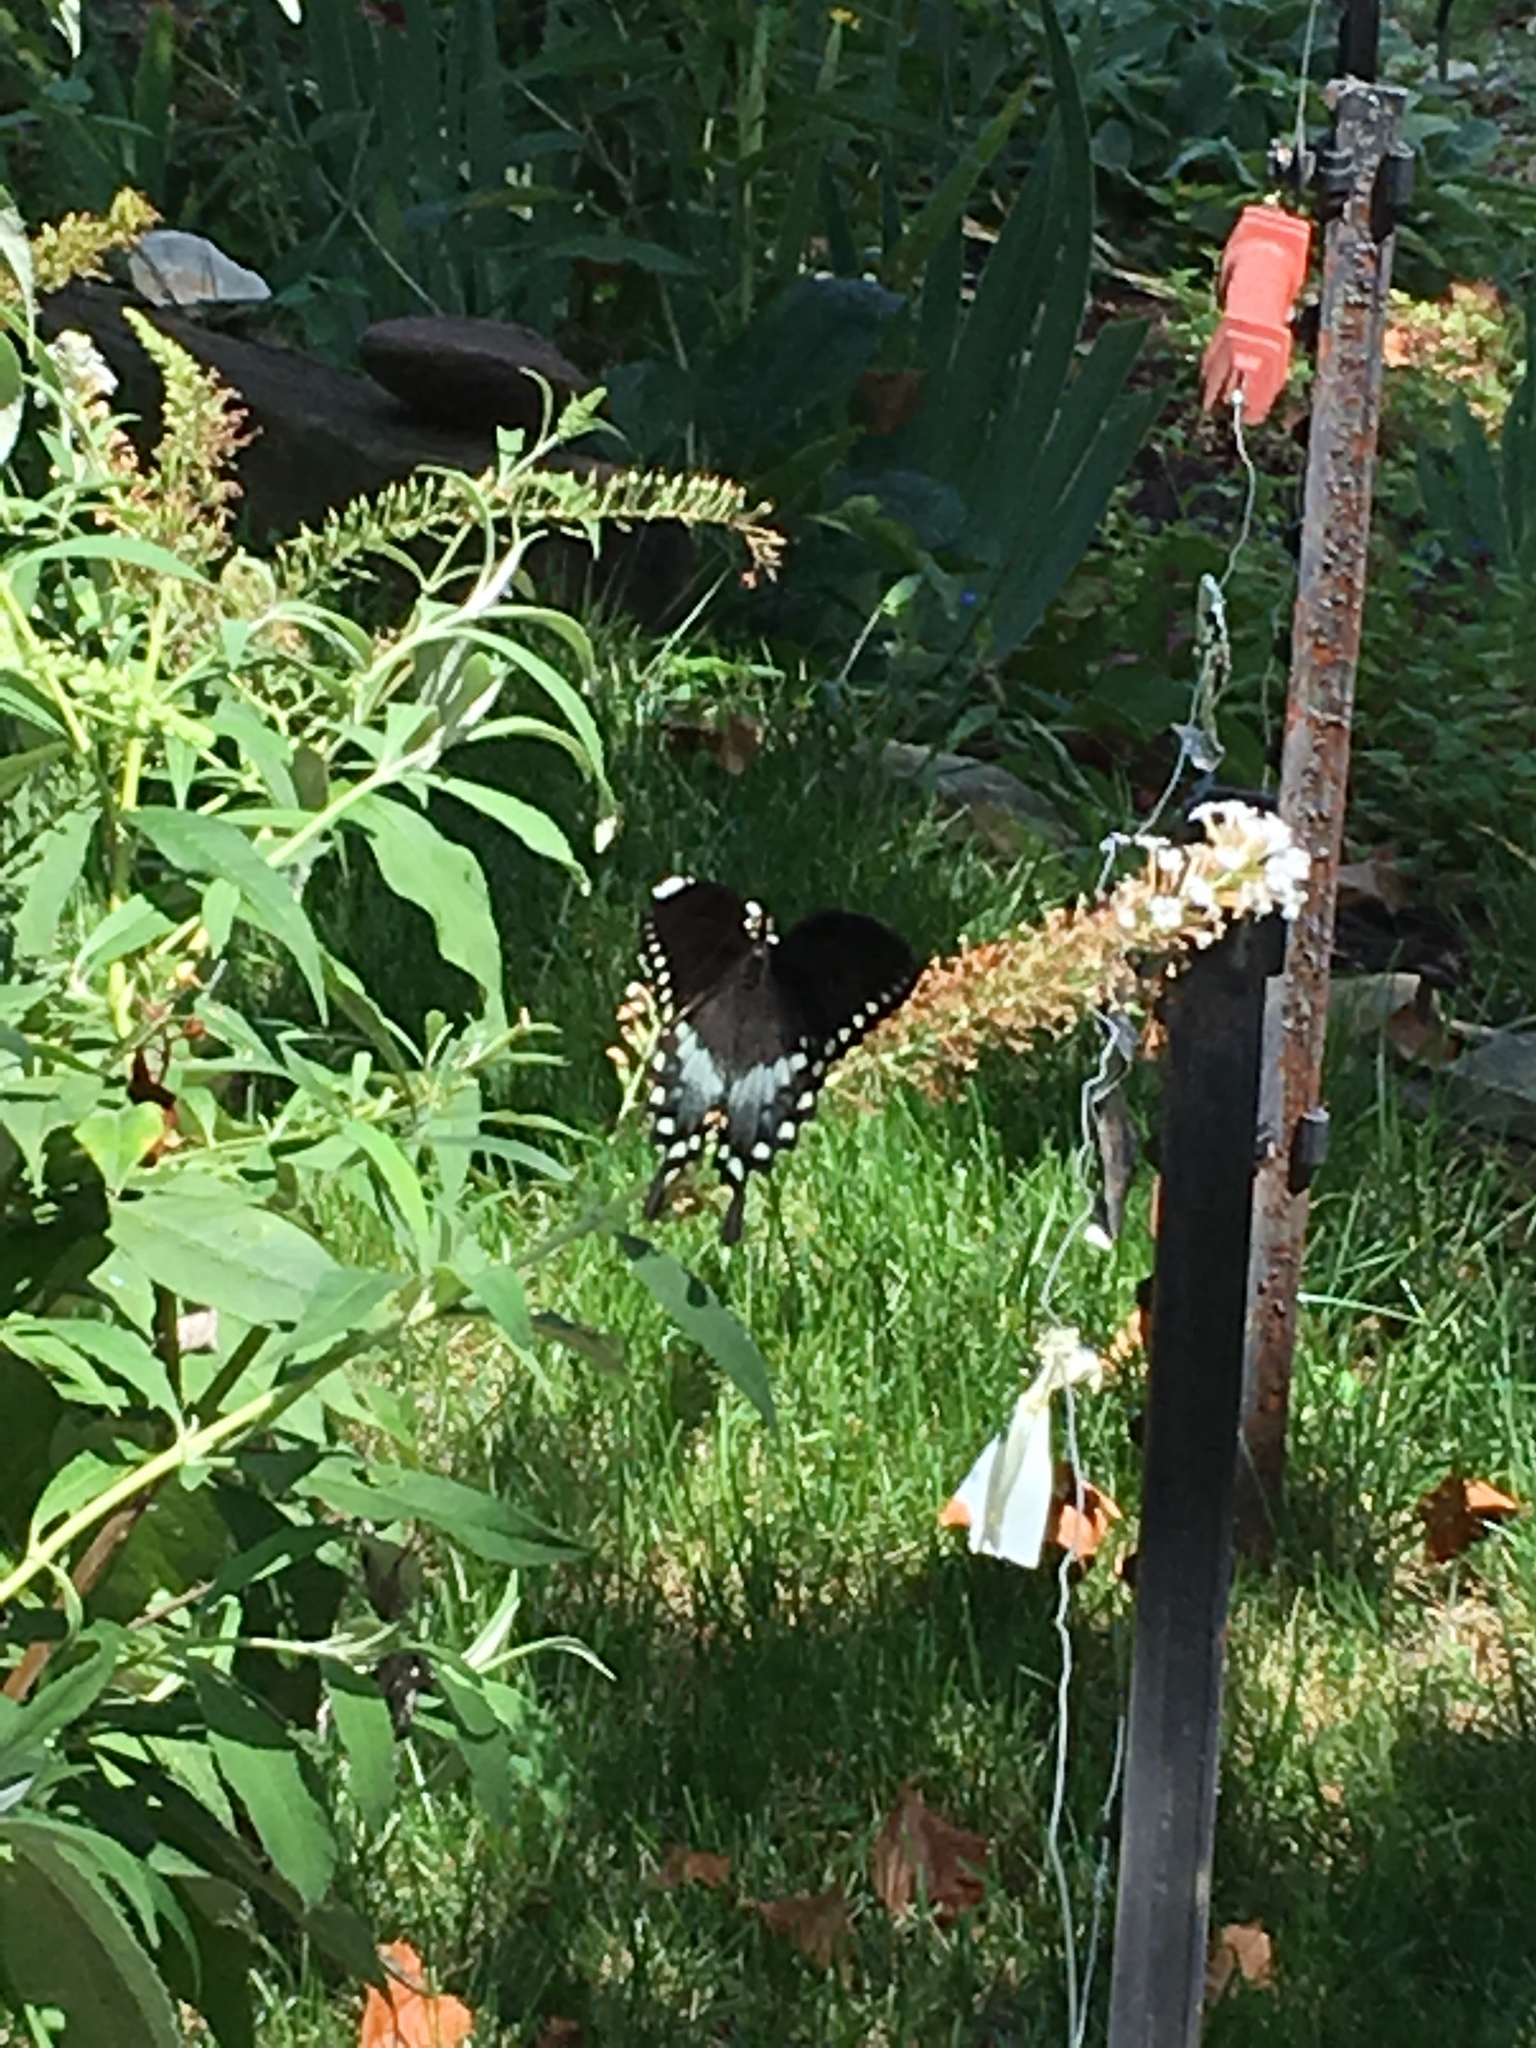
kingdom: Animalia
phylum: Arthropoda
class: Insecta
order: Lepidoptera
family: Papilionidae
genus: Papilio
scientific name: Papilio troilus
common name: Spicebush swallowtail
